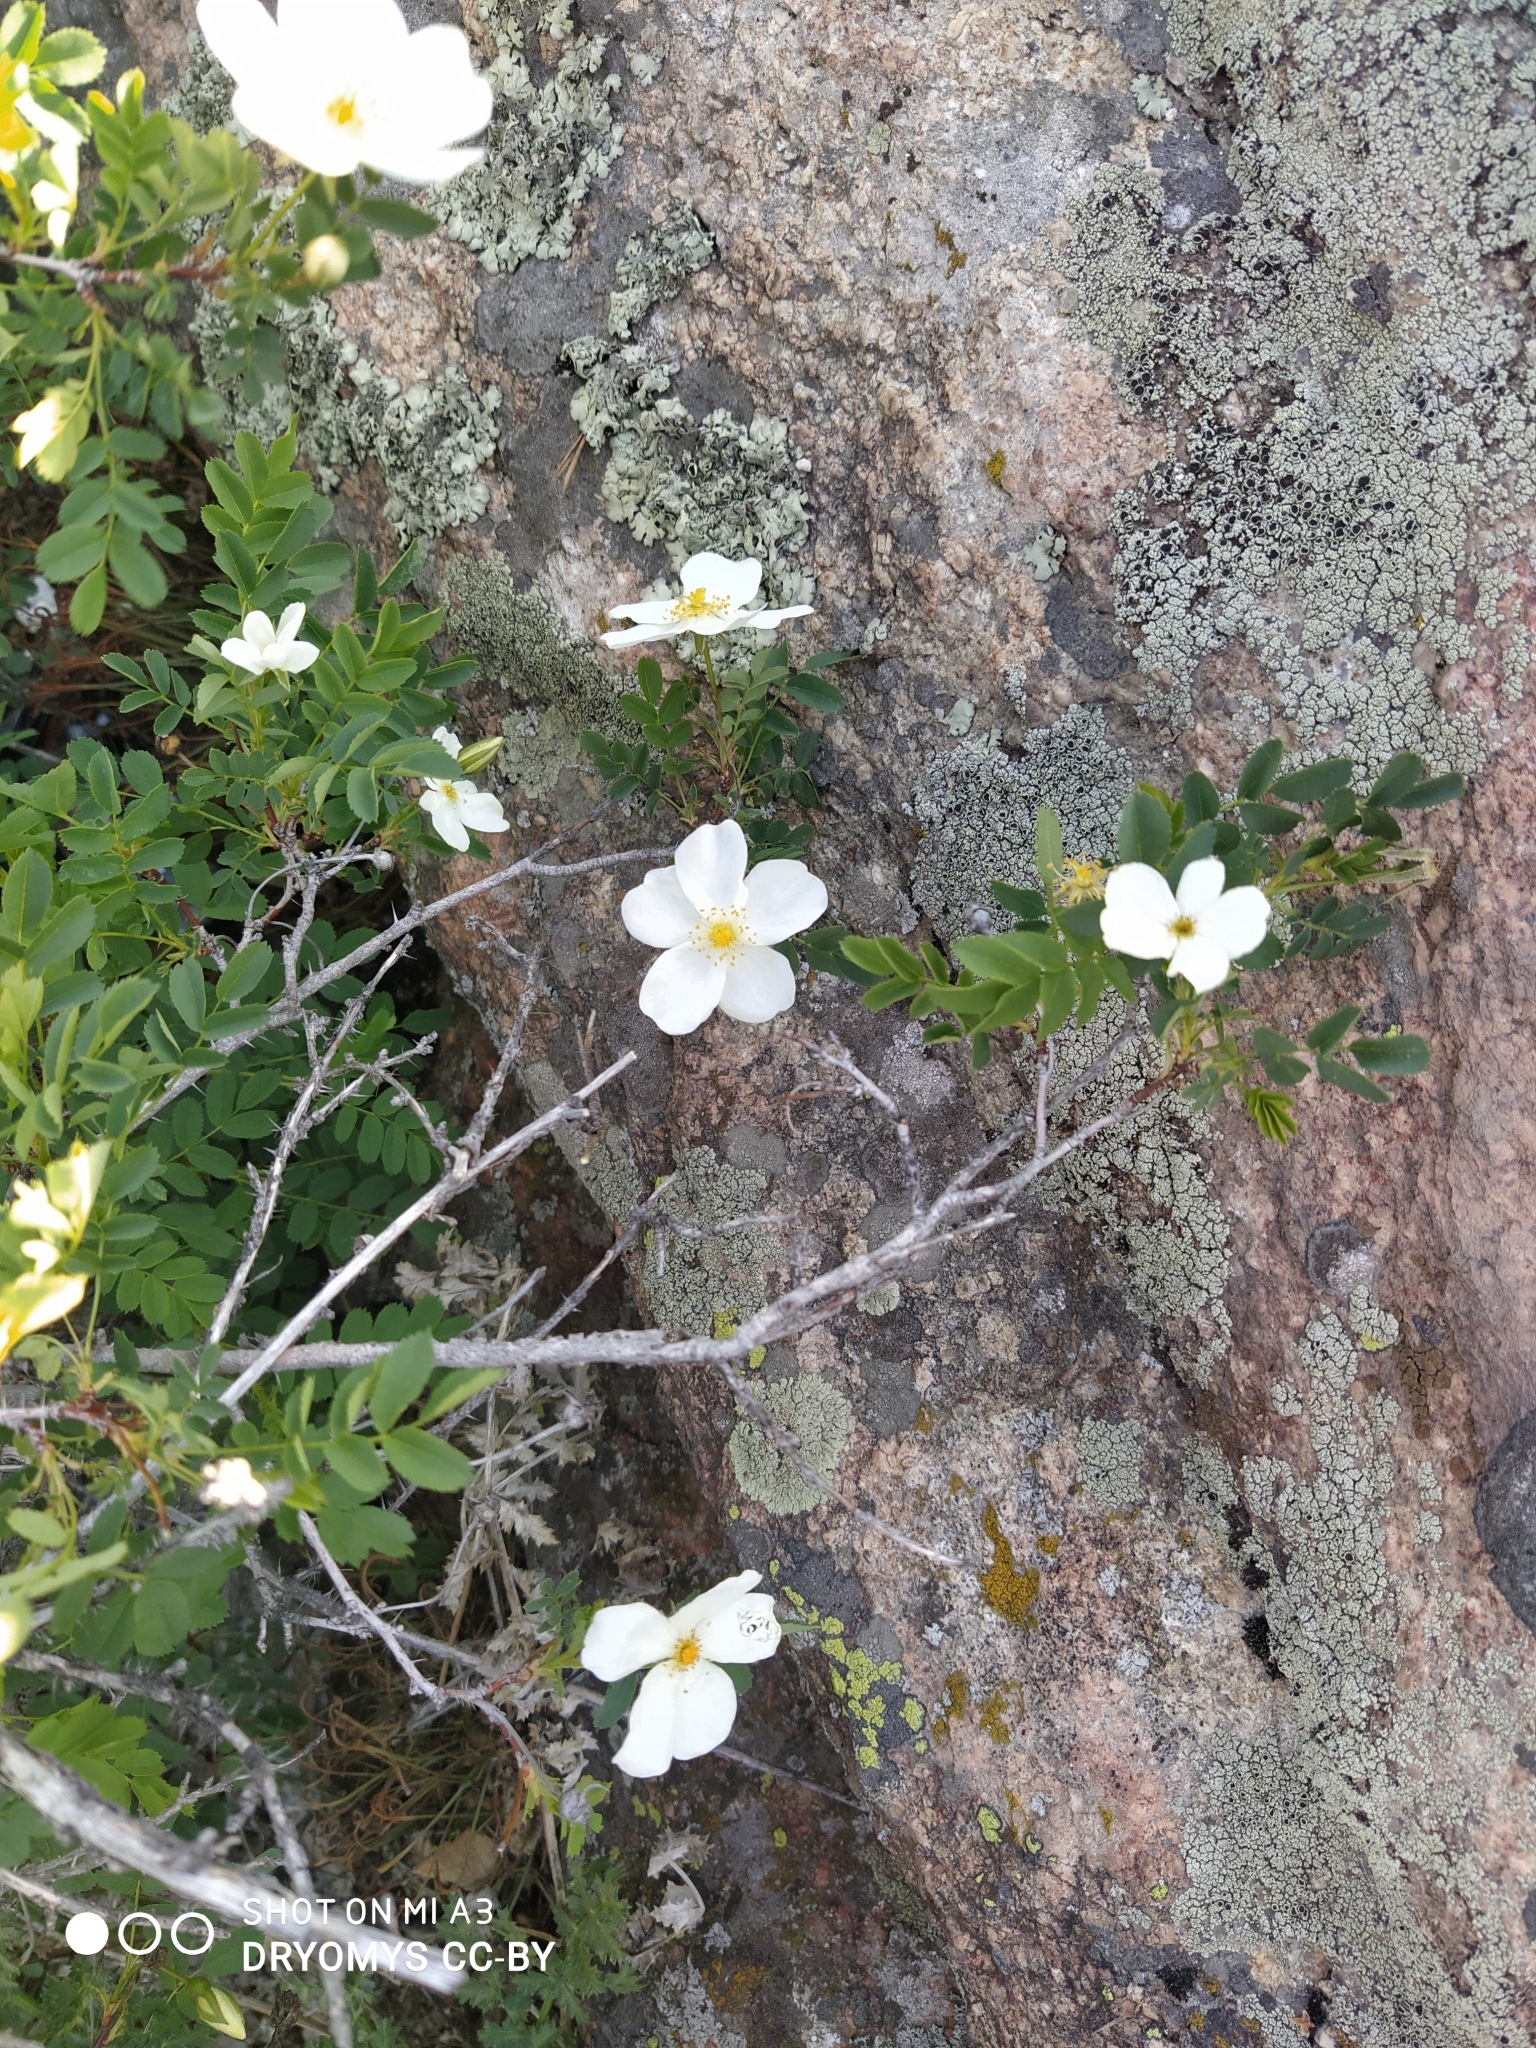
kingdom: Plantae
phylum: Tracheophyta
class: Magnoliopsida
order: Rosales
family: Rosaceae
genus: Rosa
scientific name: Rosa spinosissima
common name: Burnet rose
